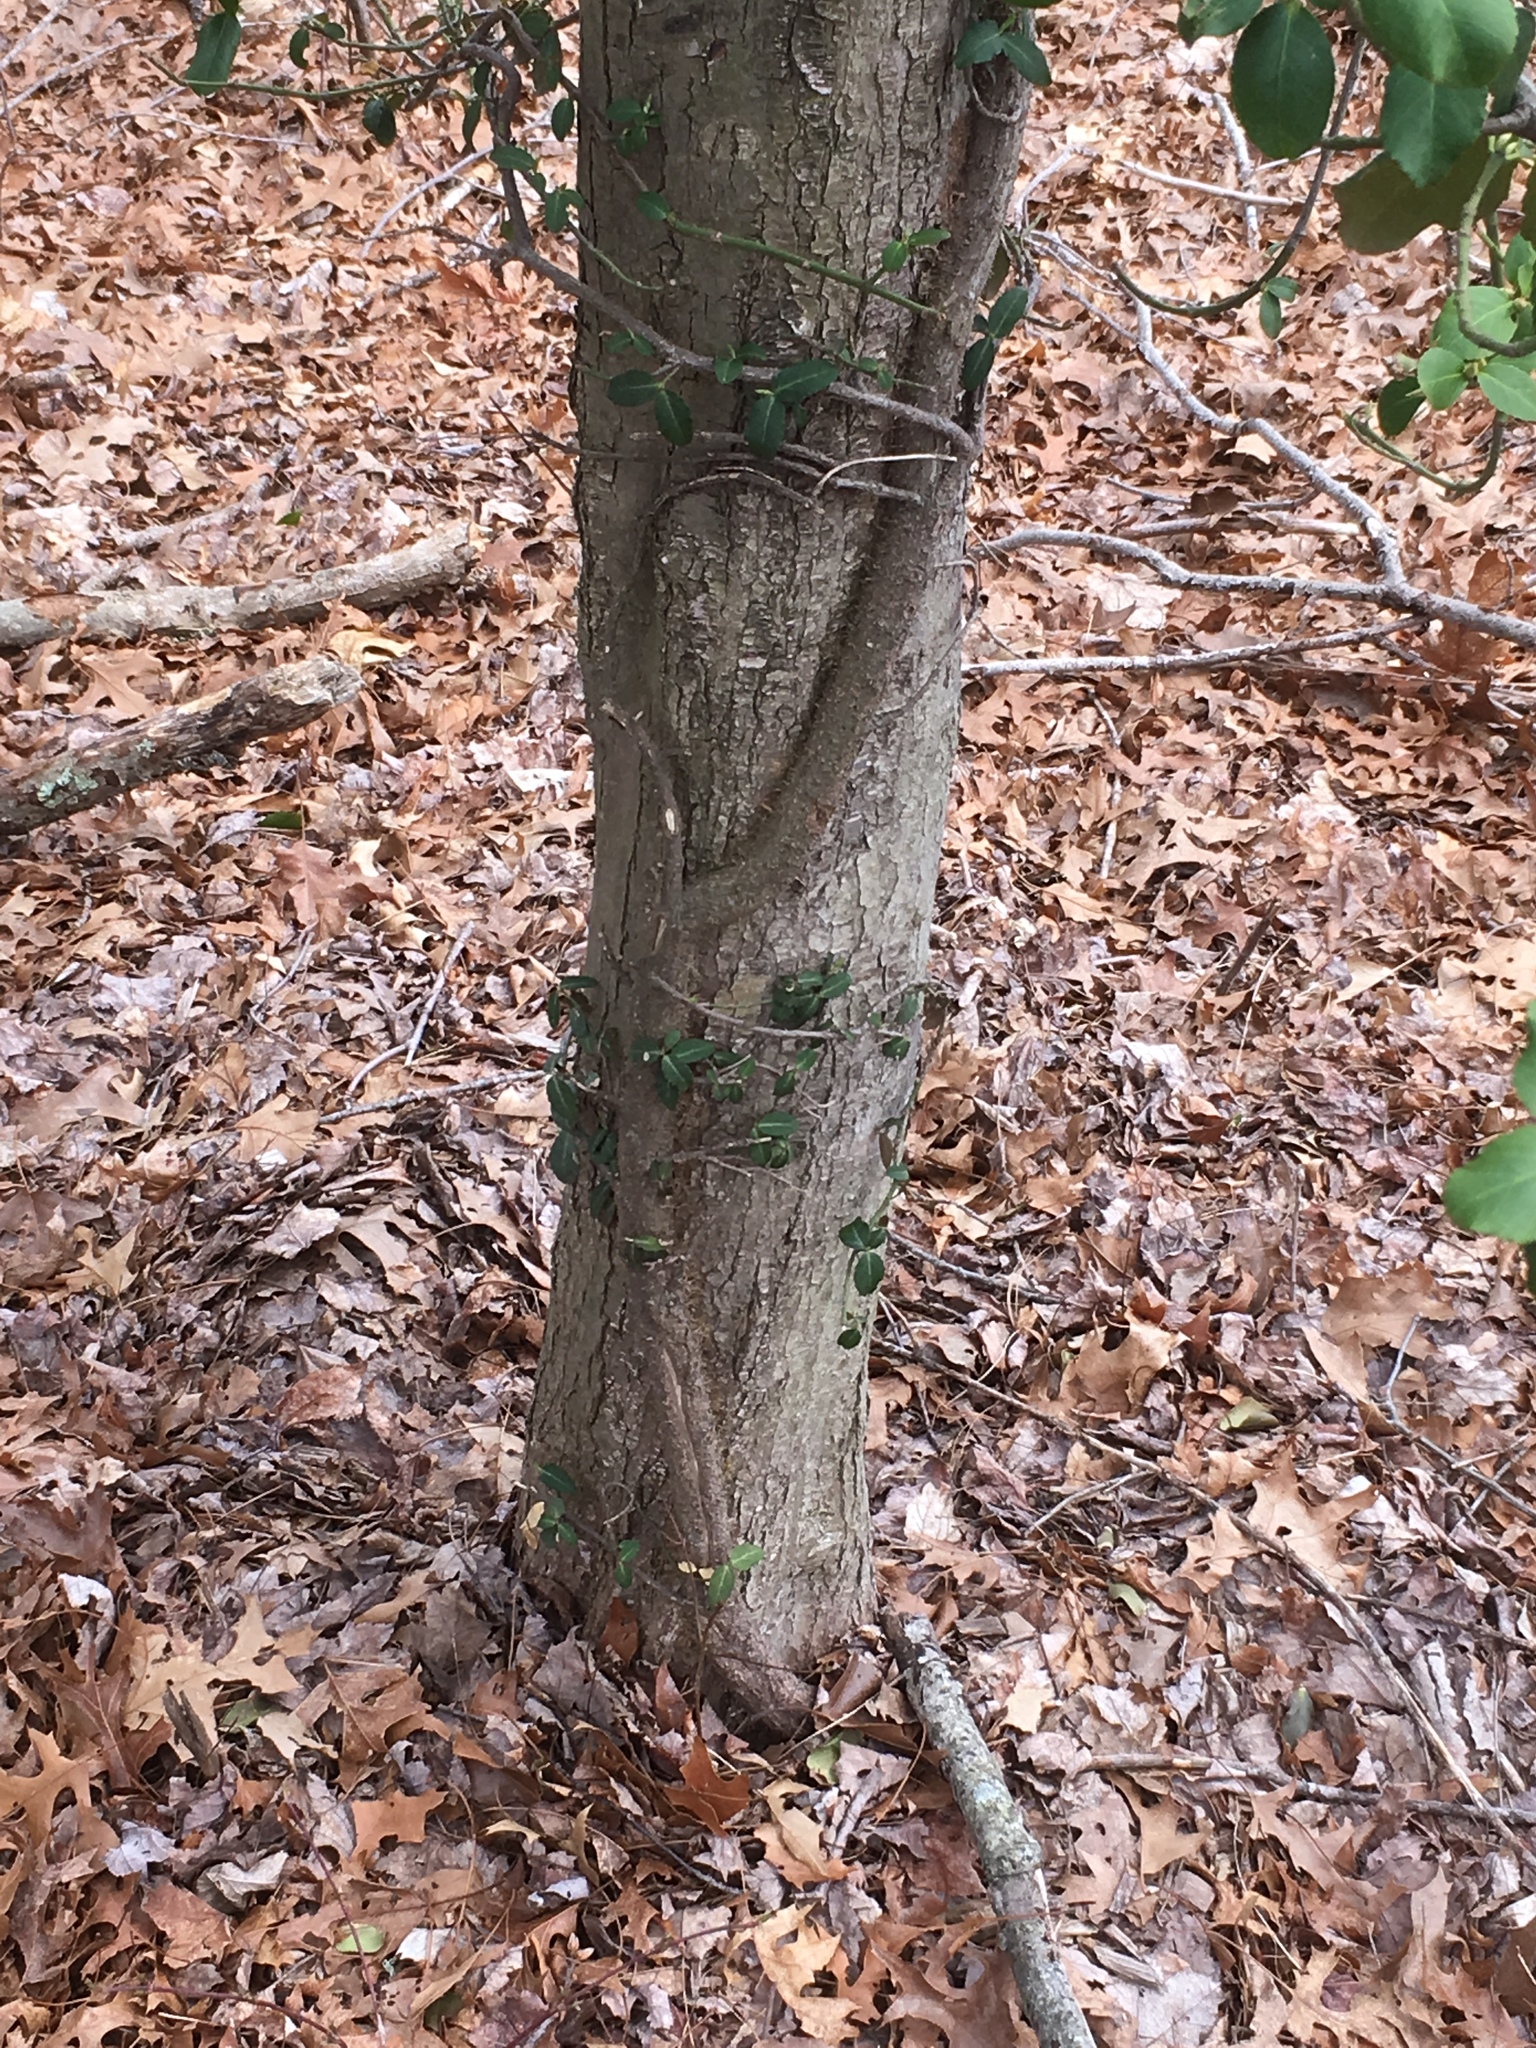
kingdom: Plantae
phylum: Tracheophyta
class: Magnoliopsida
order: Celastrales
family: Celastraceae
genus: Euonymus
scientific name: Euonymus fortunei
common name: Climbing euonymus
